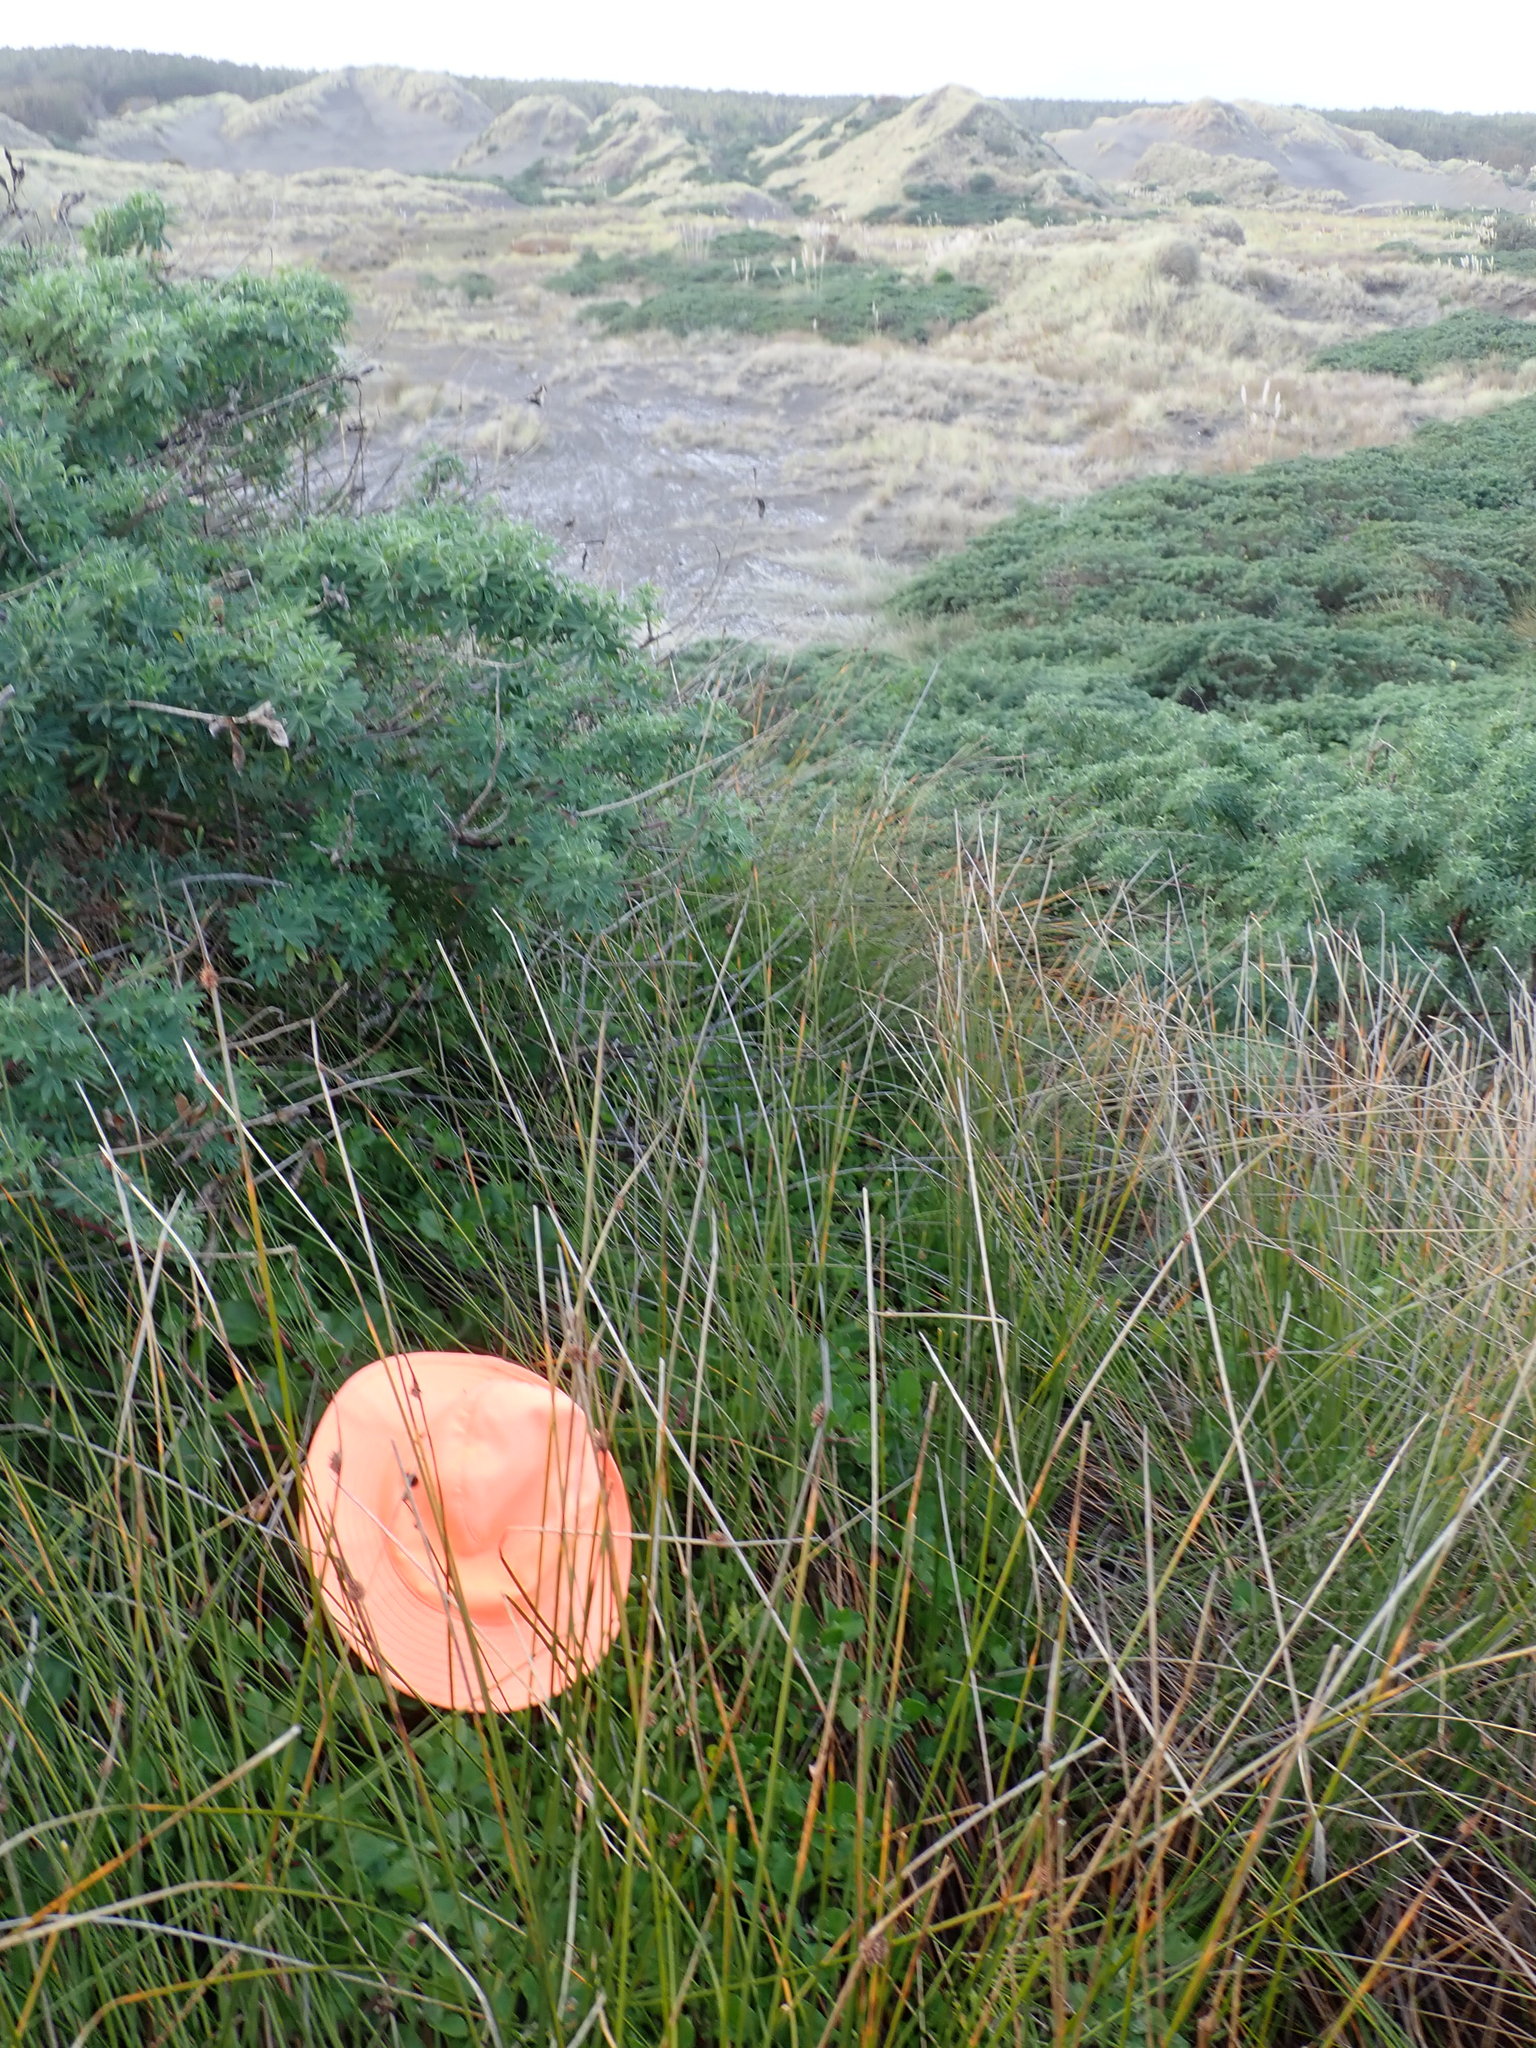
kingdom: Plantae
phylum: Tracheophyta
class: Magnoliopsida
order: Caryophyllales
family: Aizoaceae
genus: Tetragonia
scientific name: Tetragonia implexicoma
